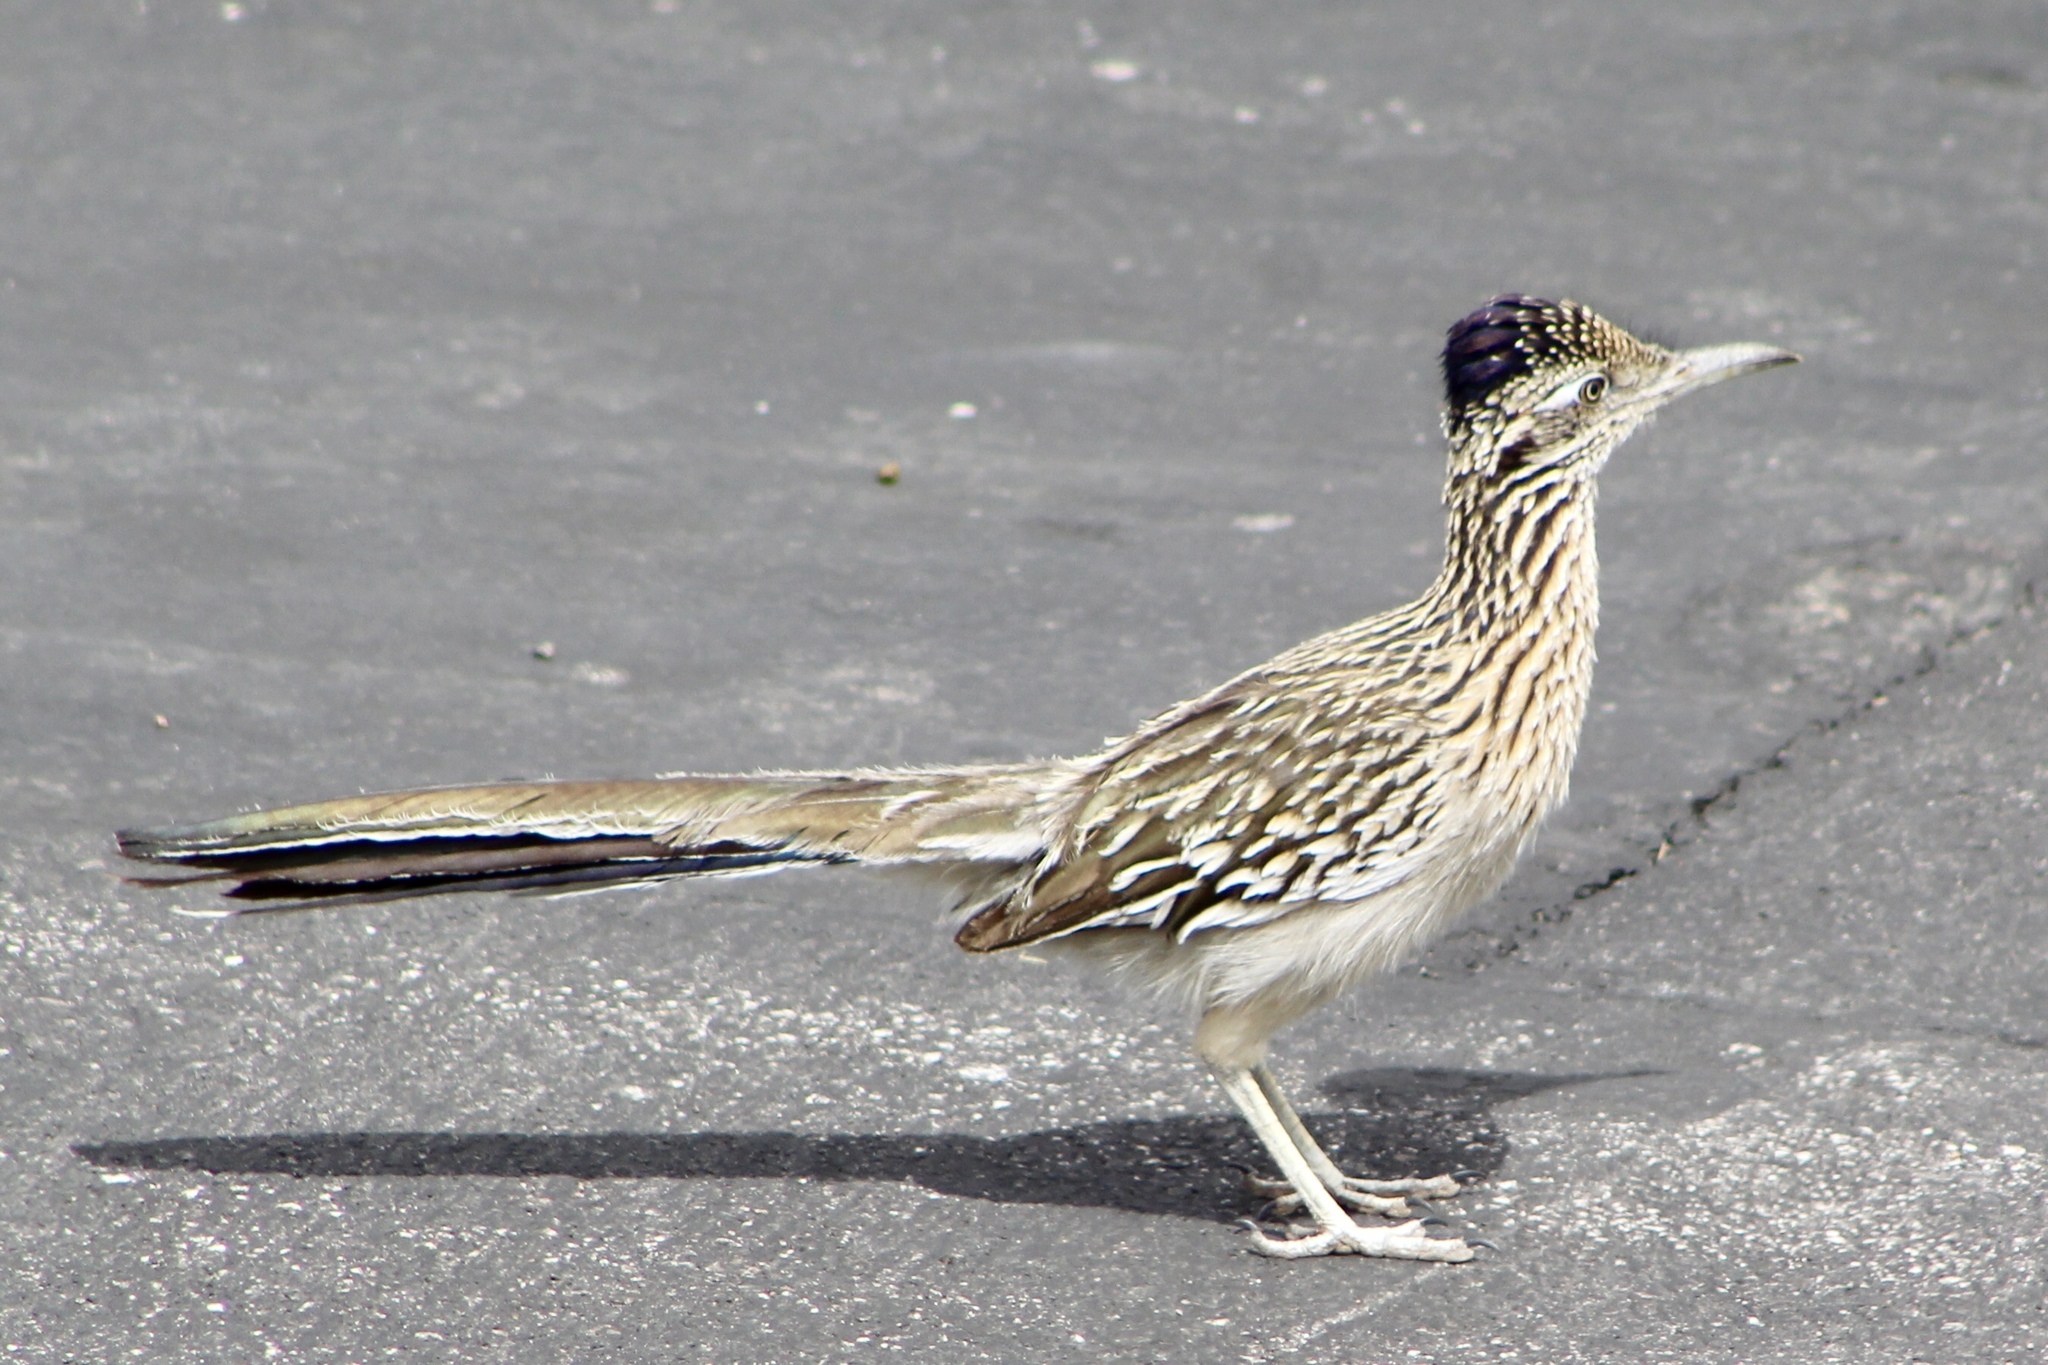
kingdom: Animalia
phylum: Chordata
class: Aves
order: Cuculiformes
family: Cuculidae
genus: Geococcyx
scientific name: Geococcyx californianus
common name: Greater roadrunner
